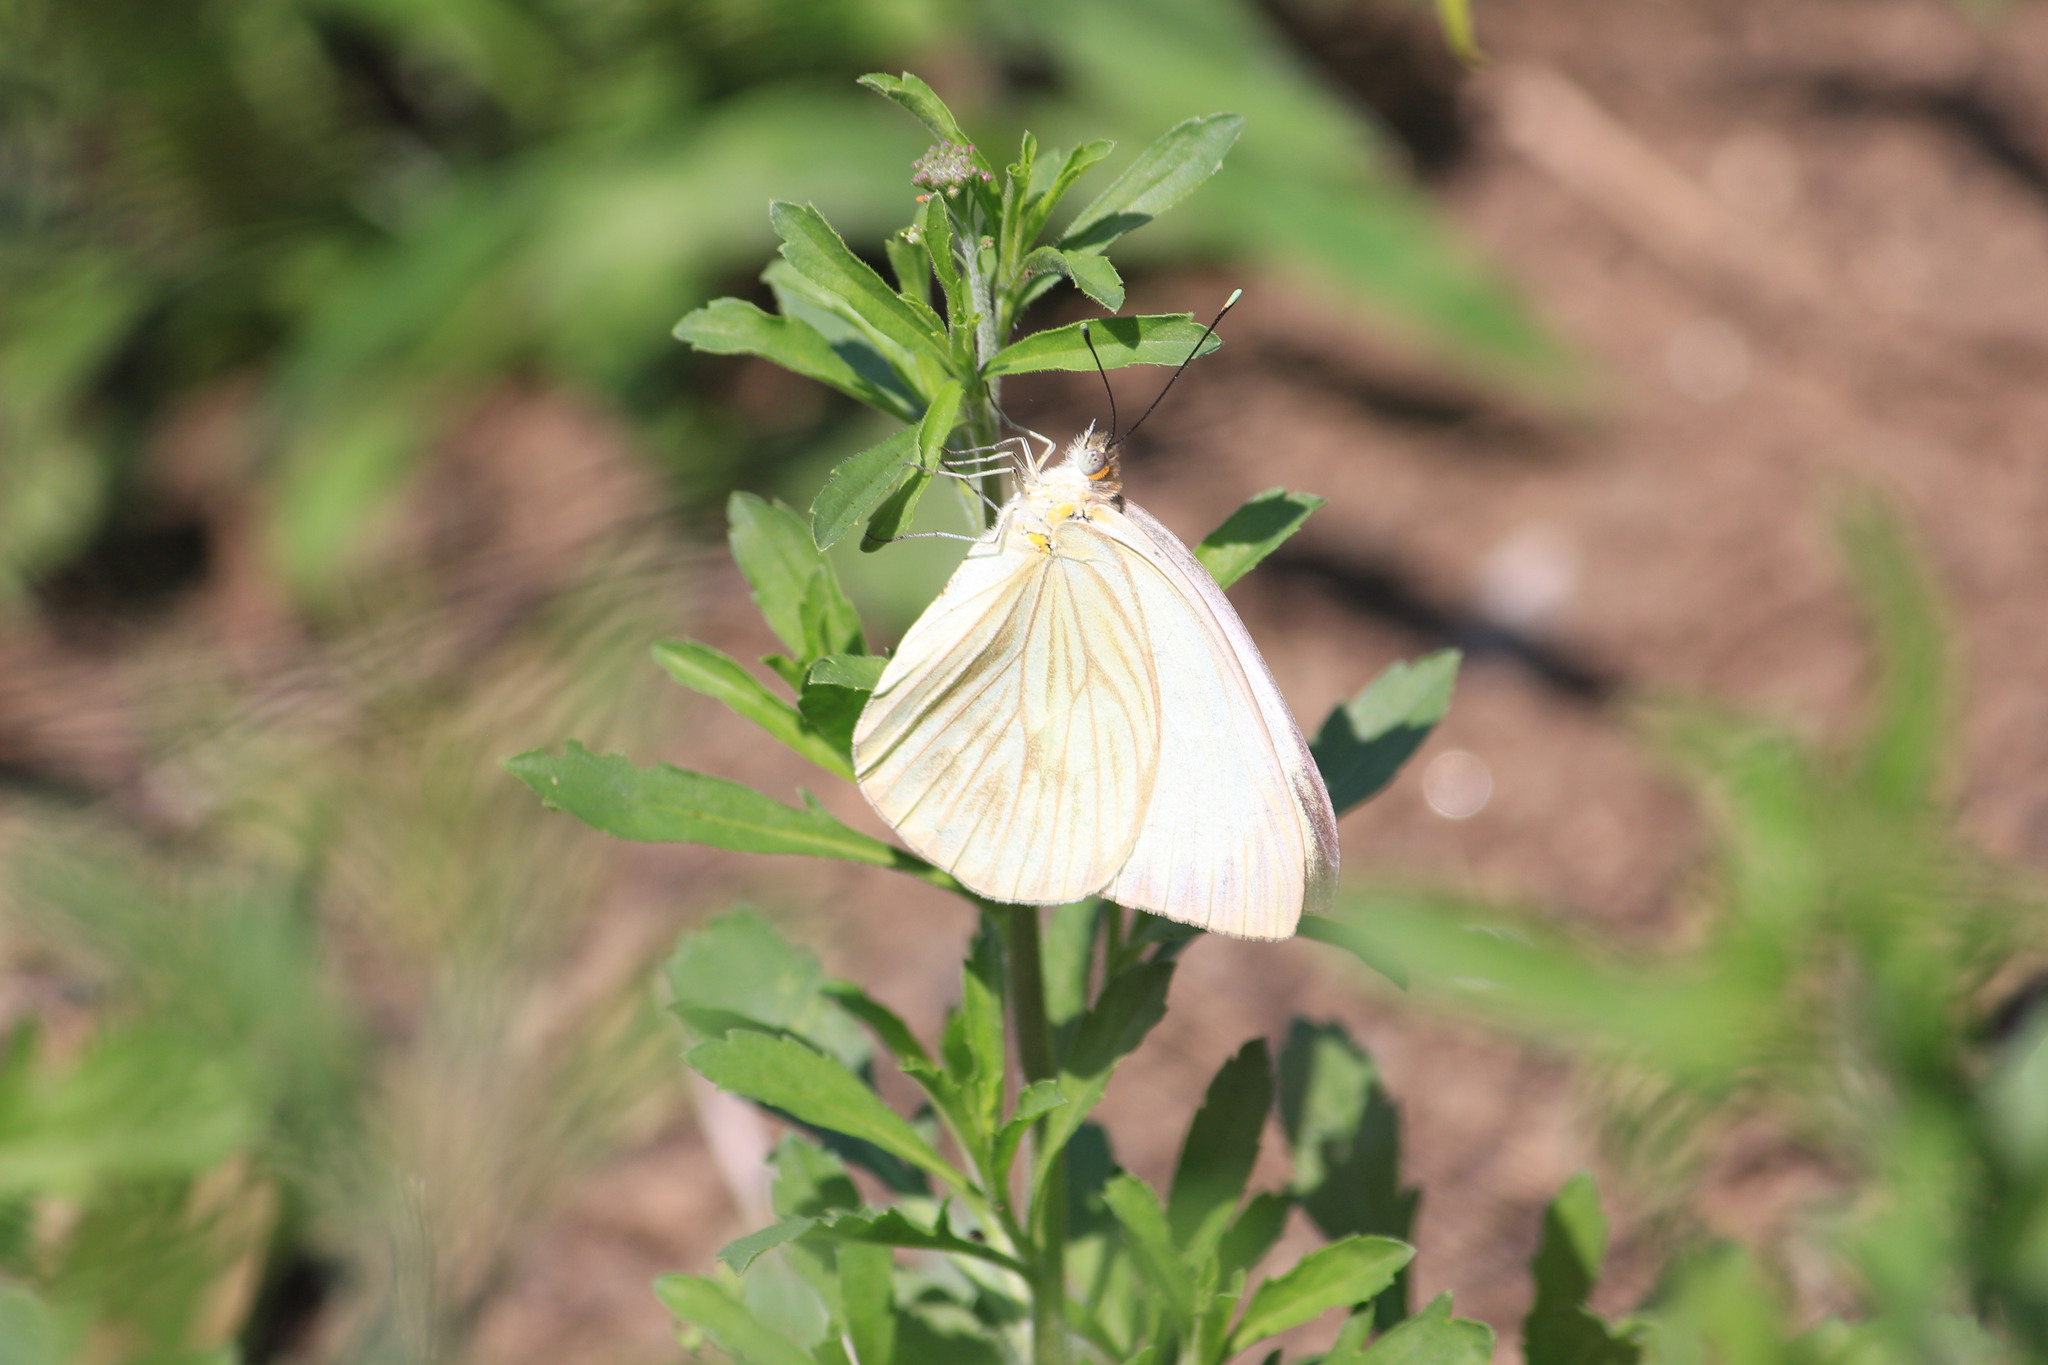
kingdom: Animalia
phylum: Arthropoda
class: Insecta
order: Lepidoptera
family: Pieridae
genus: Ascia
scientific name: Ascia monuste
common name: Great southern white
